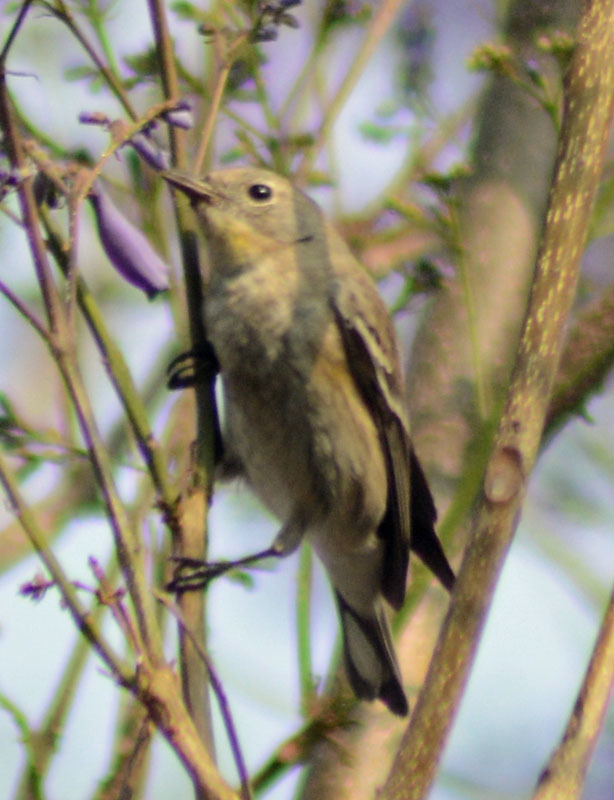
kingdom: Animalia
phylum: Chordata
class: Aves
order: Passeriformes
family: Parulidae
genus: Setophaga
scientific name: Setophaga coronata
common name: Myrtle warbler
